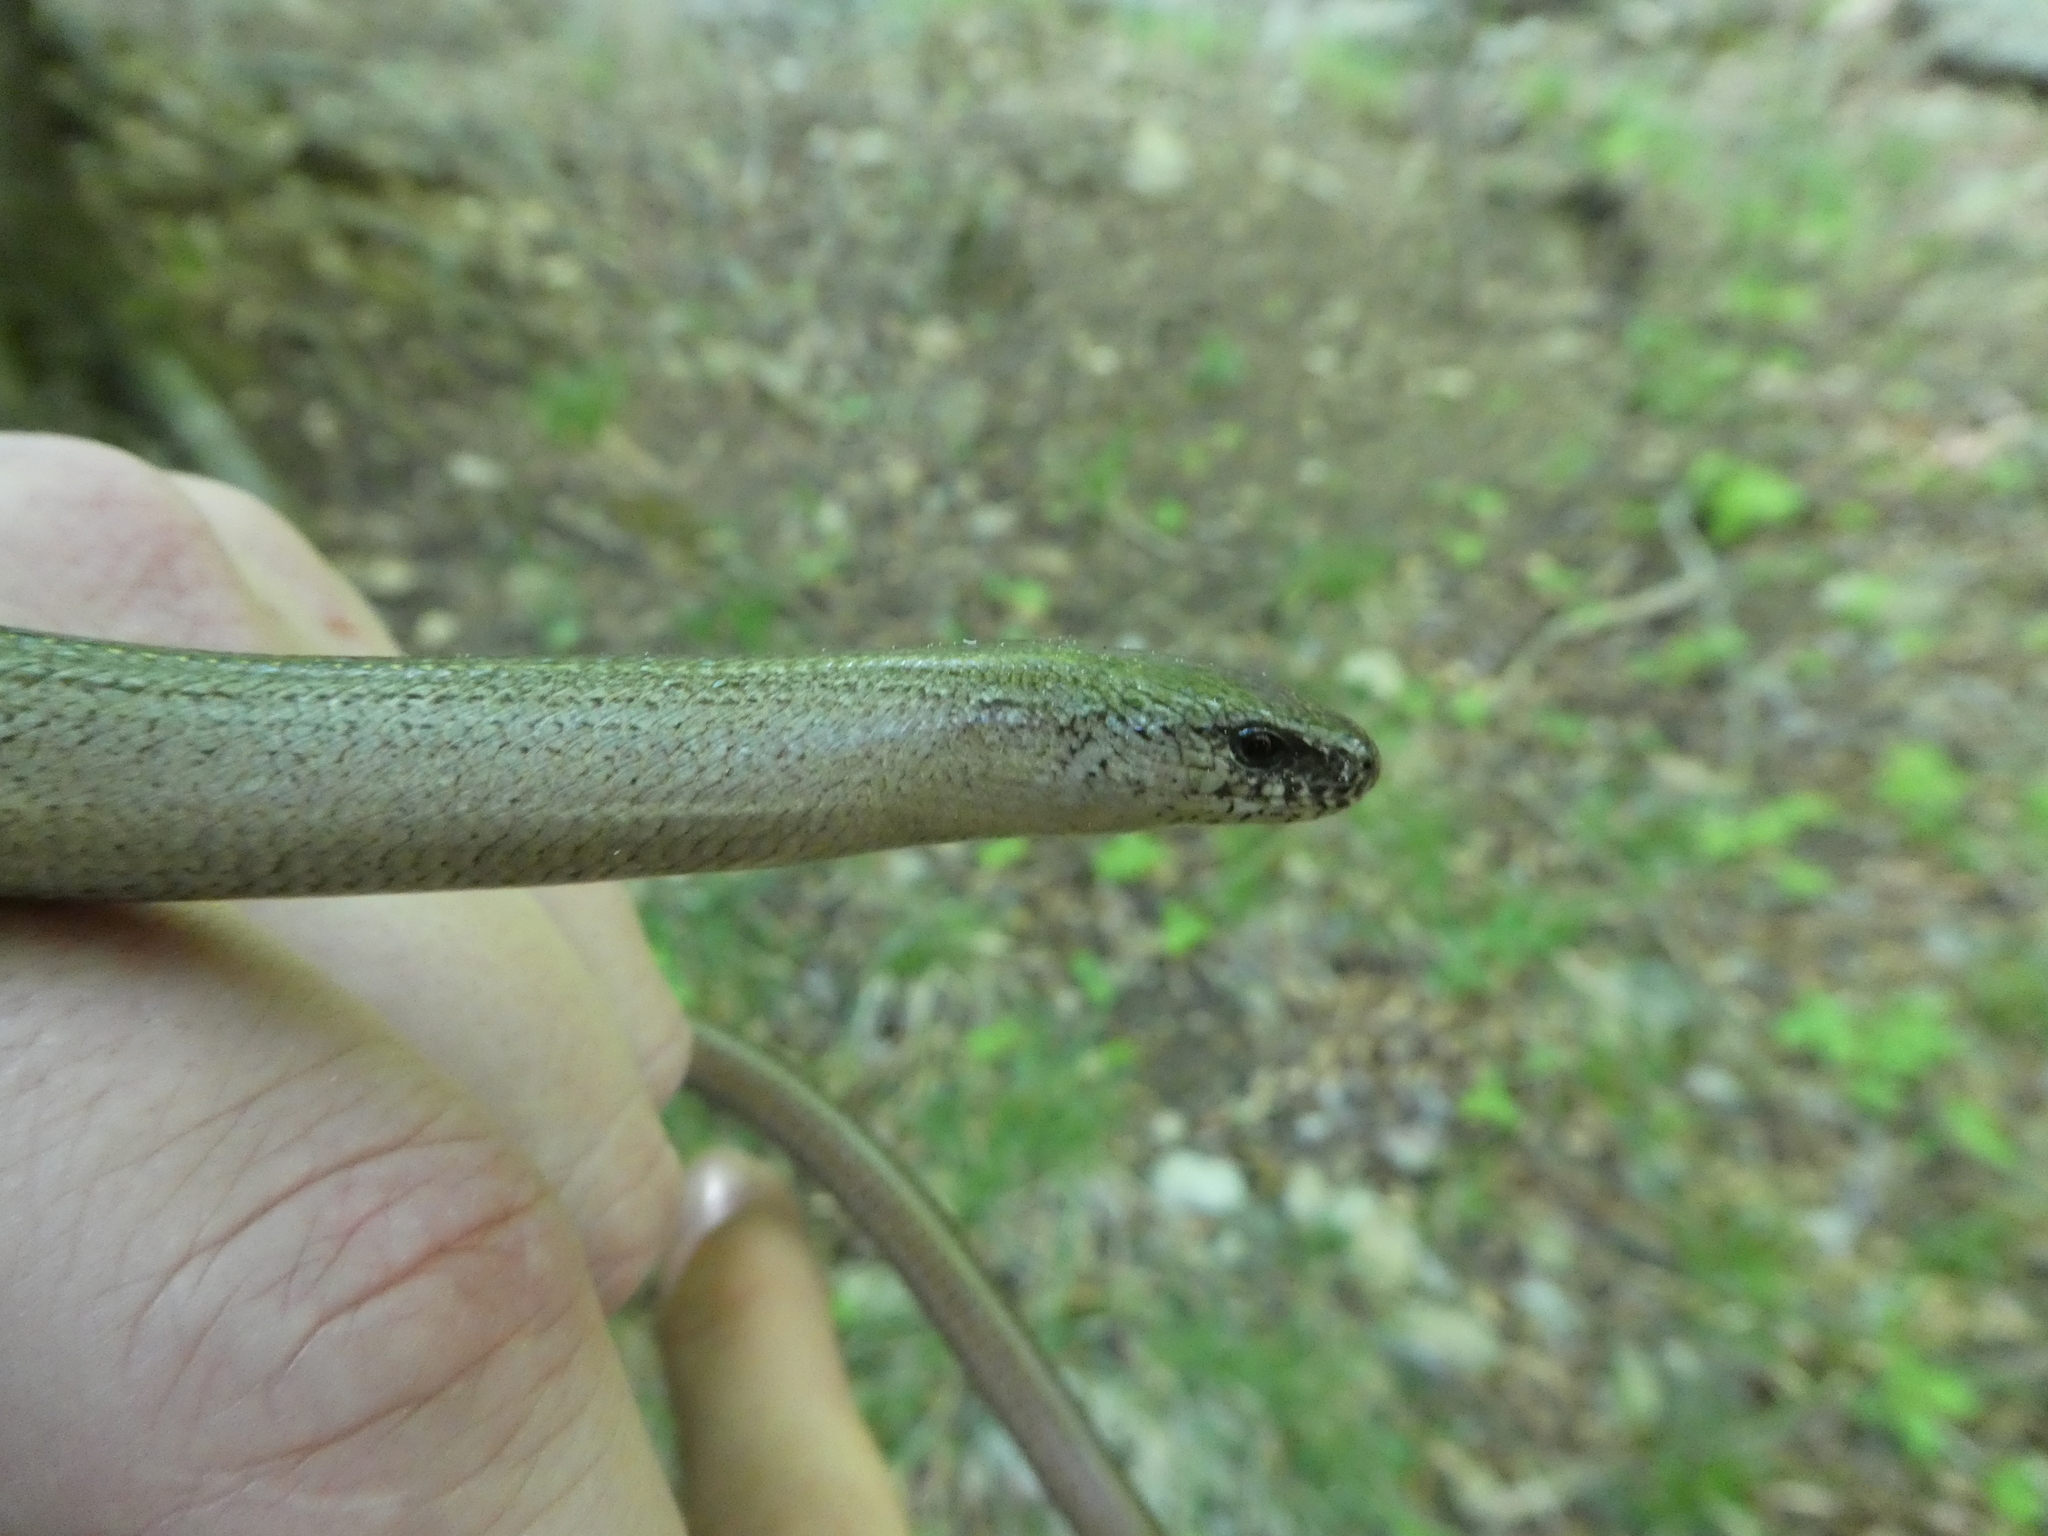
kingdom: Animalia
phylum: Chordata
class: Squamata
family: Anguidae
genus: Anguis
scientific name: Anguis fragilis
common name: Slow worm
